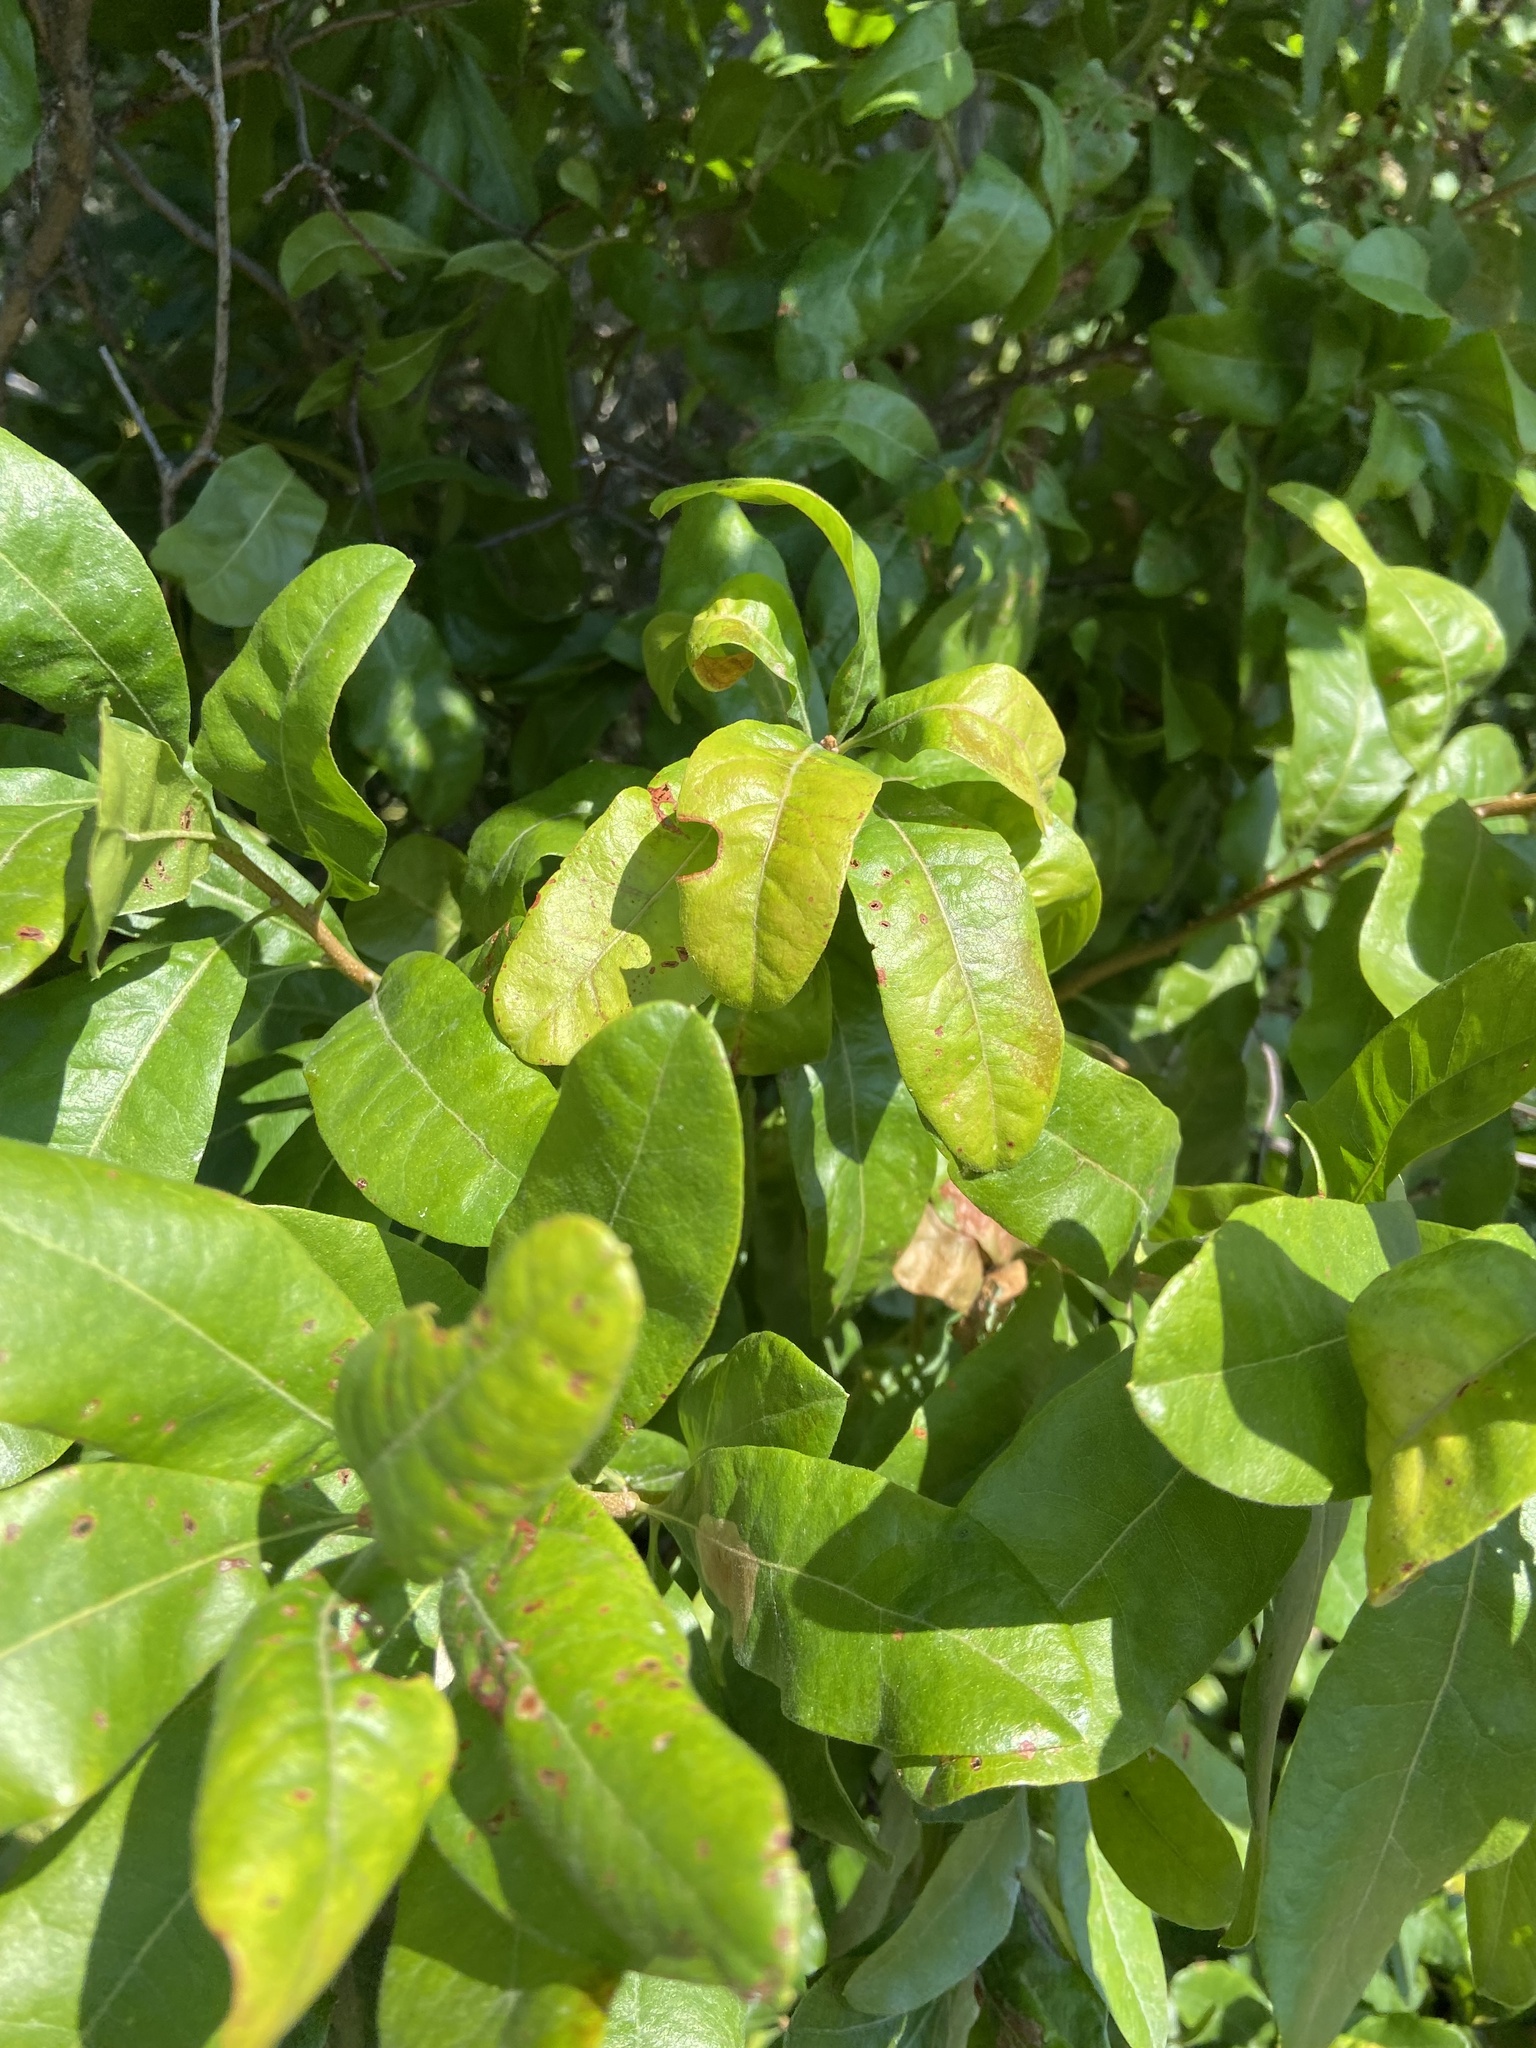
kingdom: Plantae
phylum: Tracheophyta
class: Magnoliopsida
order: Fagales
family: Myricaceae
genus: Morella
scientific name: Morella pensylvanica
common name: Northern bayberry
